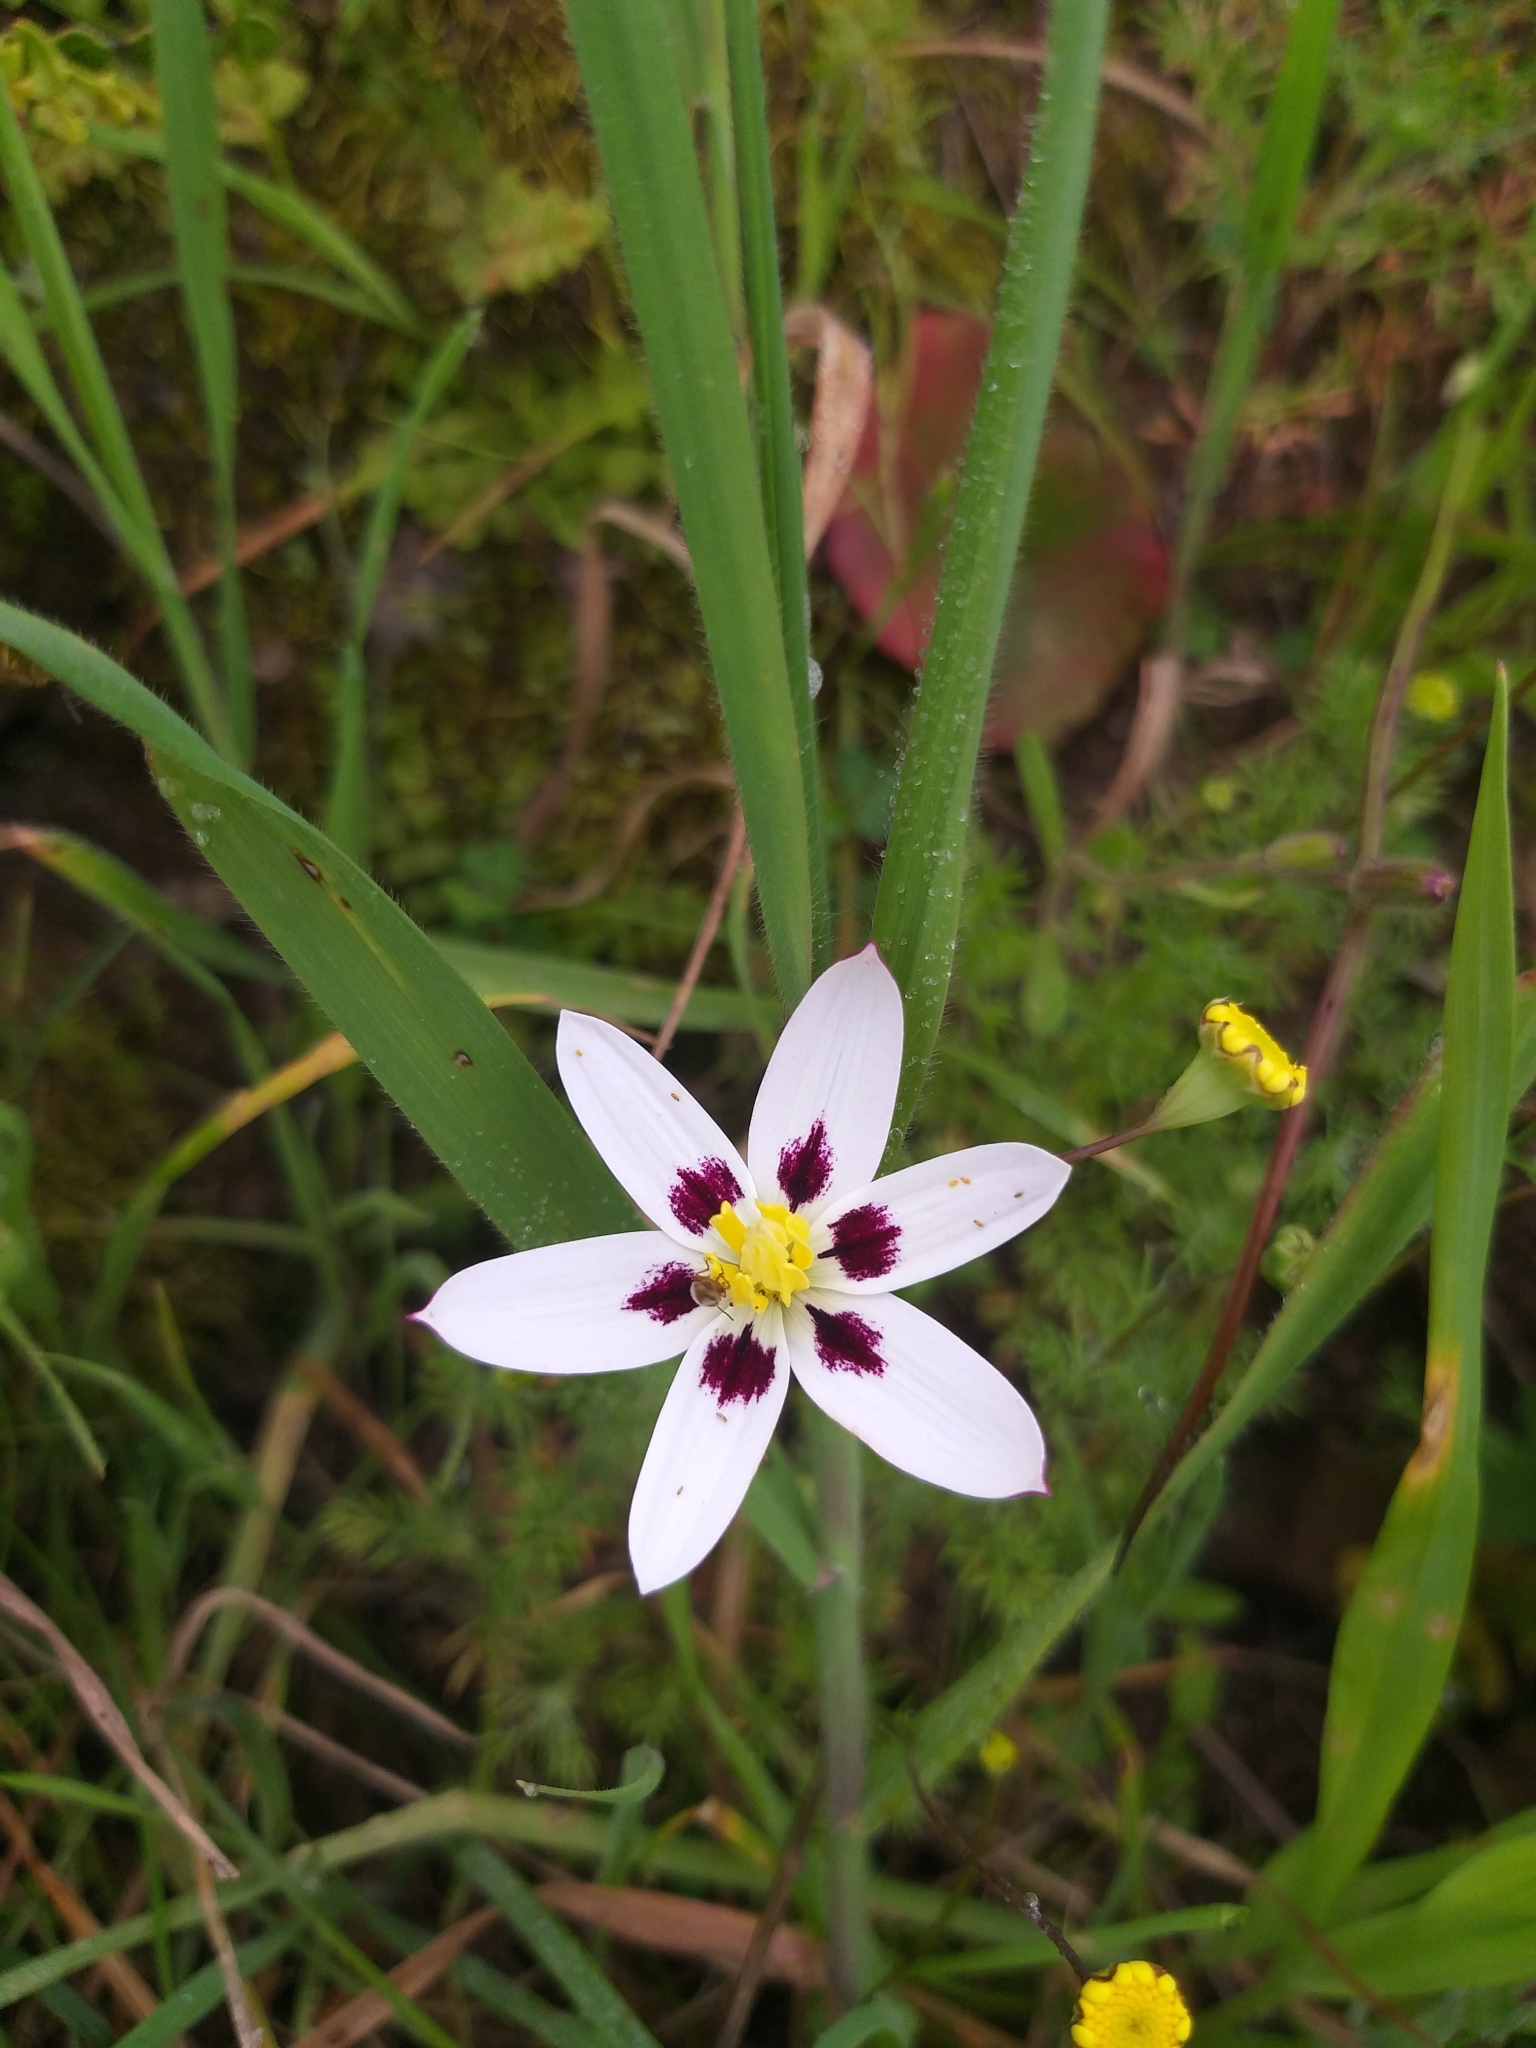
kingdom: Plantae
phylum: Tracheophyta
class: Liliopsida
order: Asparagales
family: Hypoxidaceae
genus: Pauridia
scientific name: Pauridia capensis
